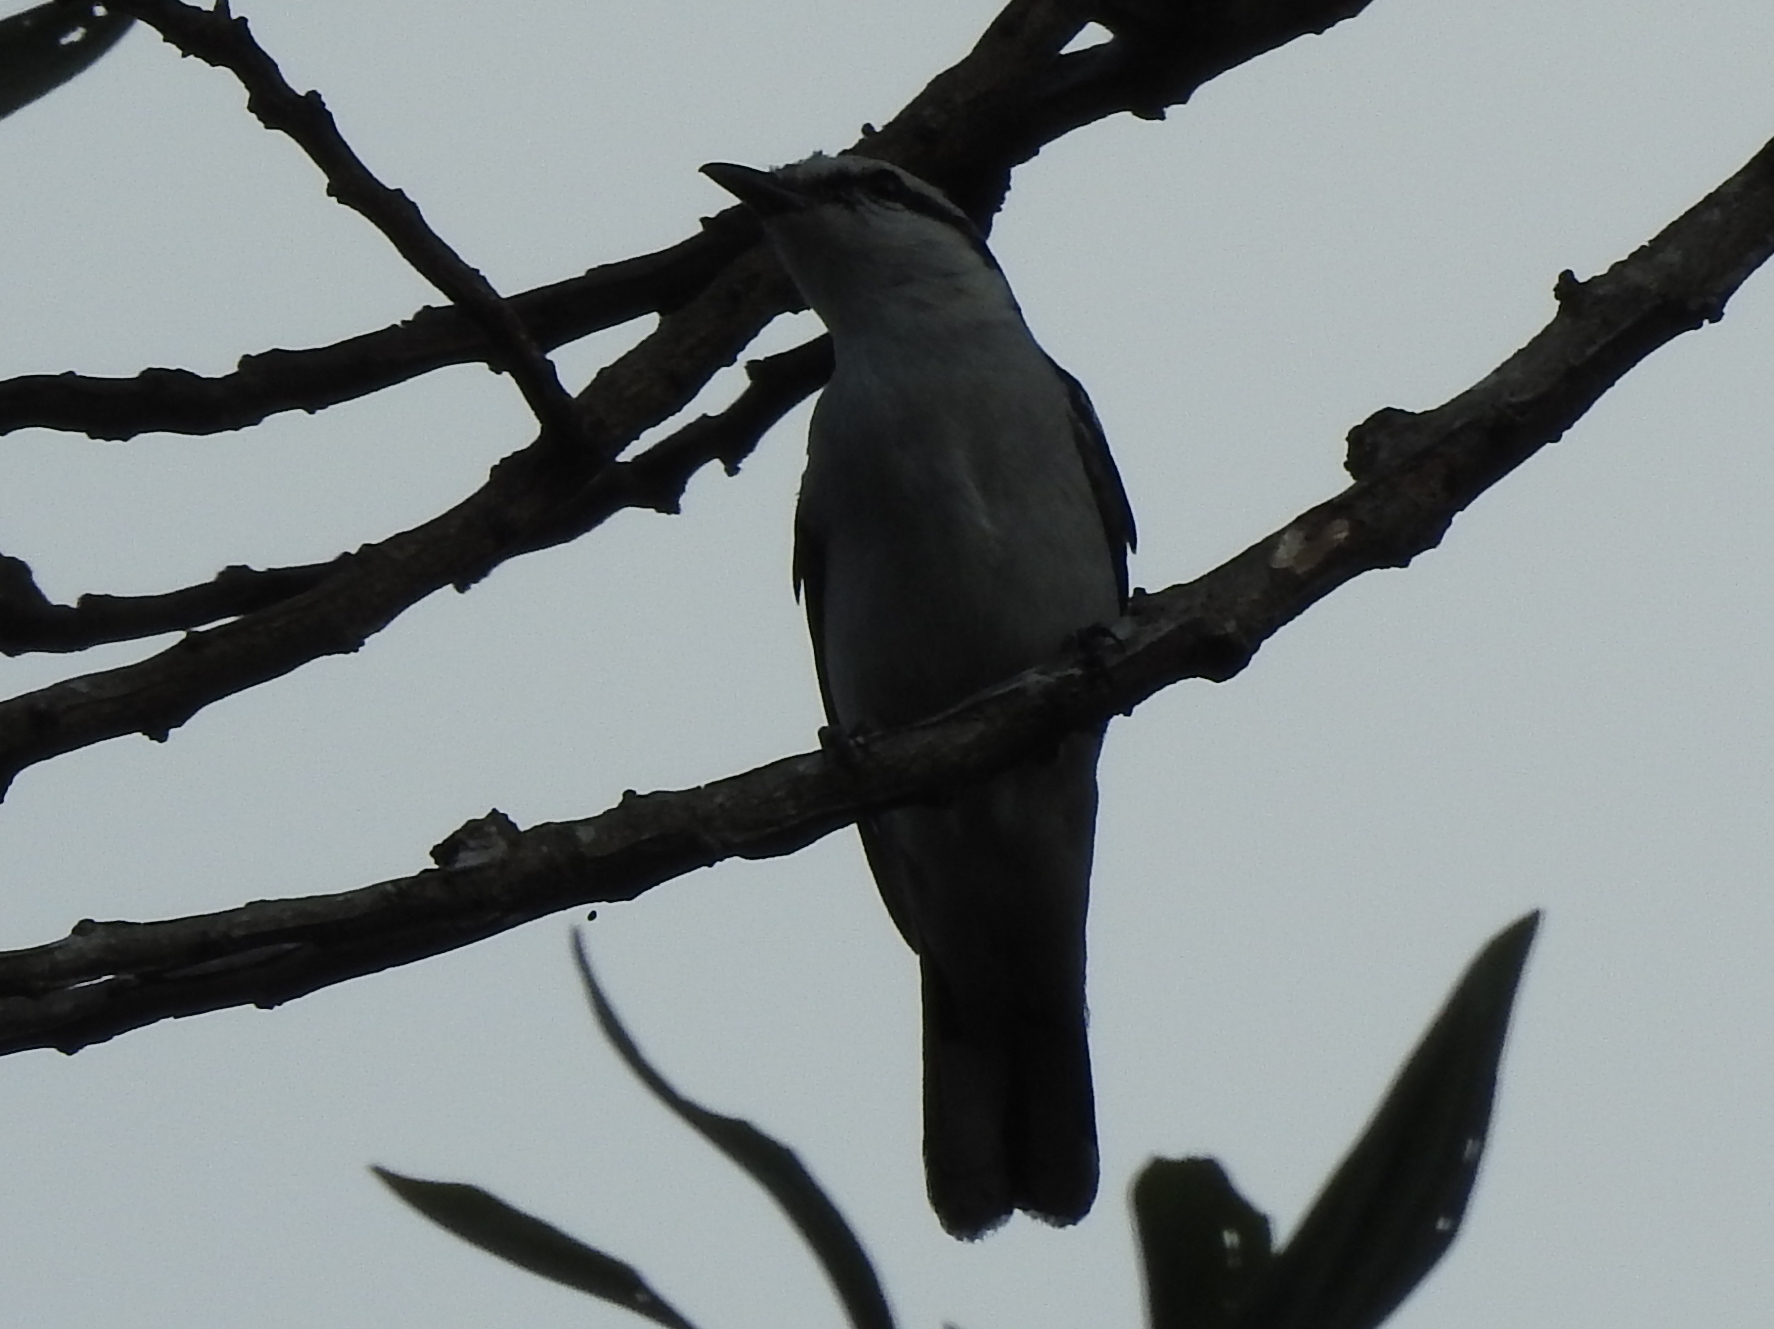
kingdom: Animalia
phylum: Chordata
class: Aves
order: Passeriformes
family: Campephagidae
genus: Lalage
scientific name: Lalage nigra
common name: Pied triller
